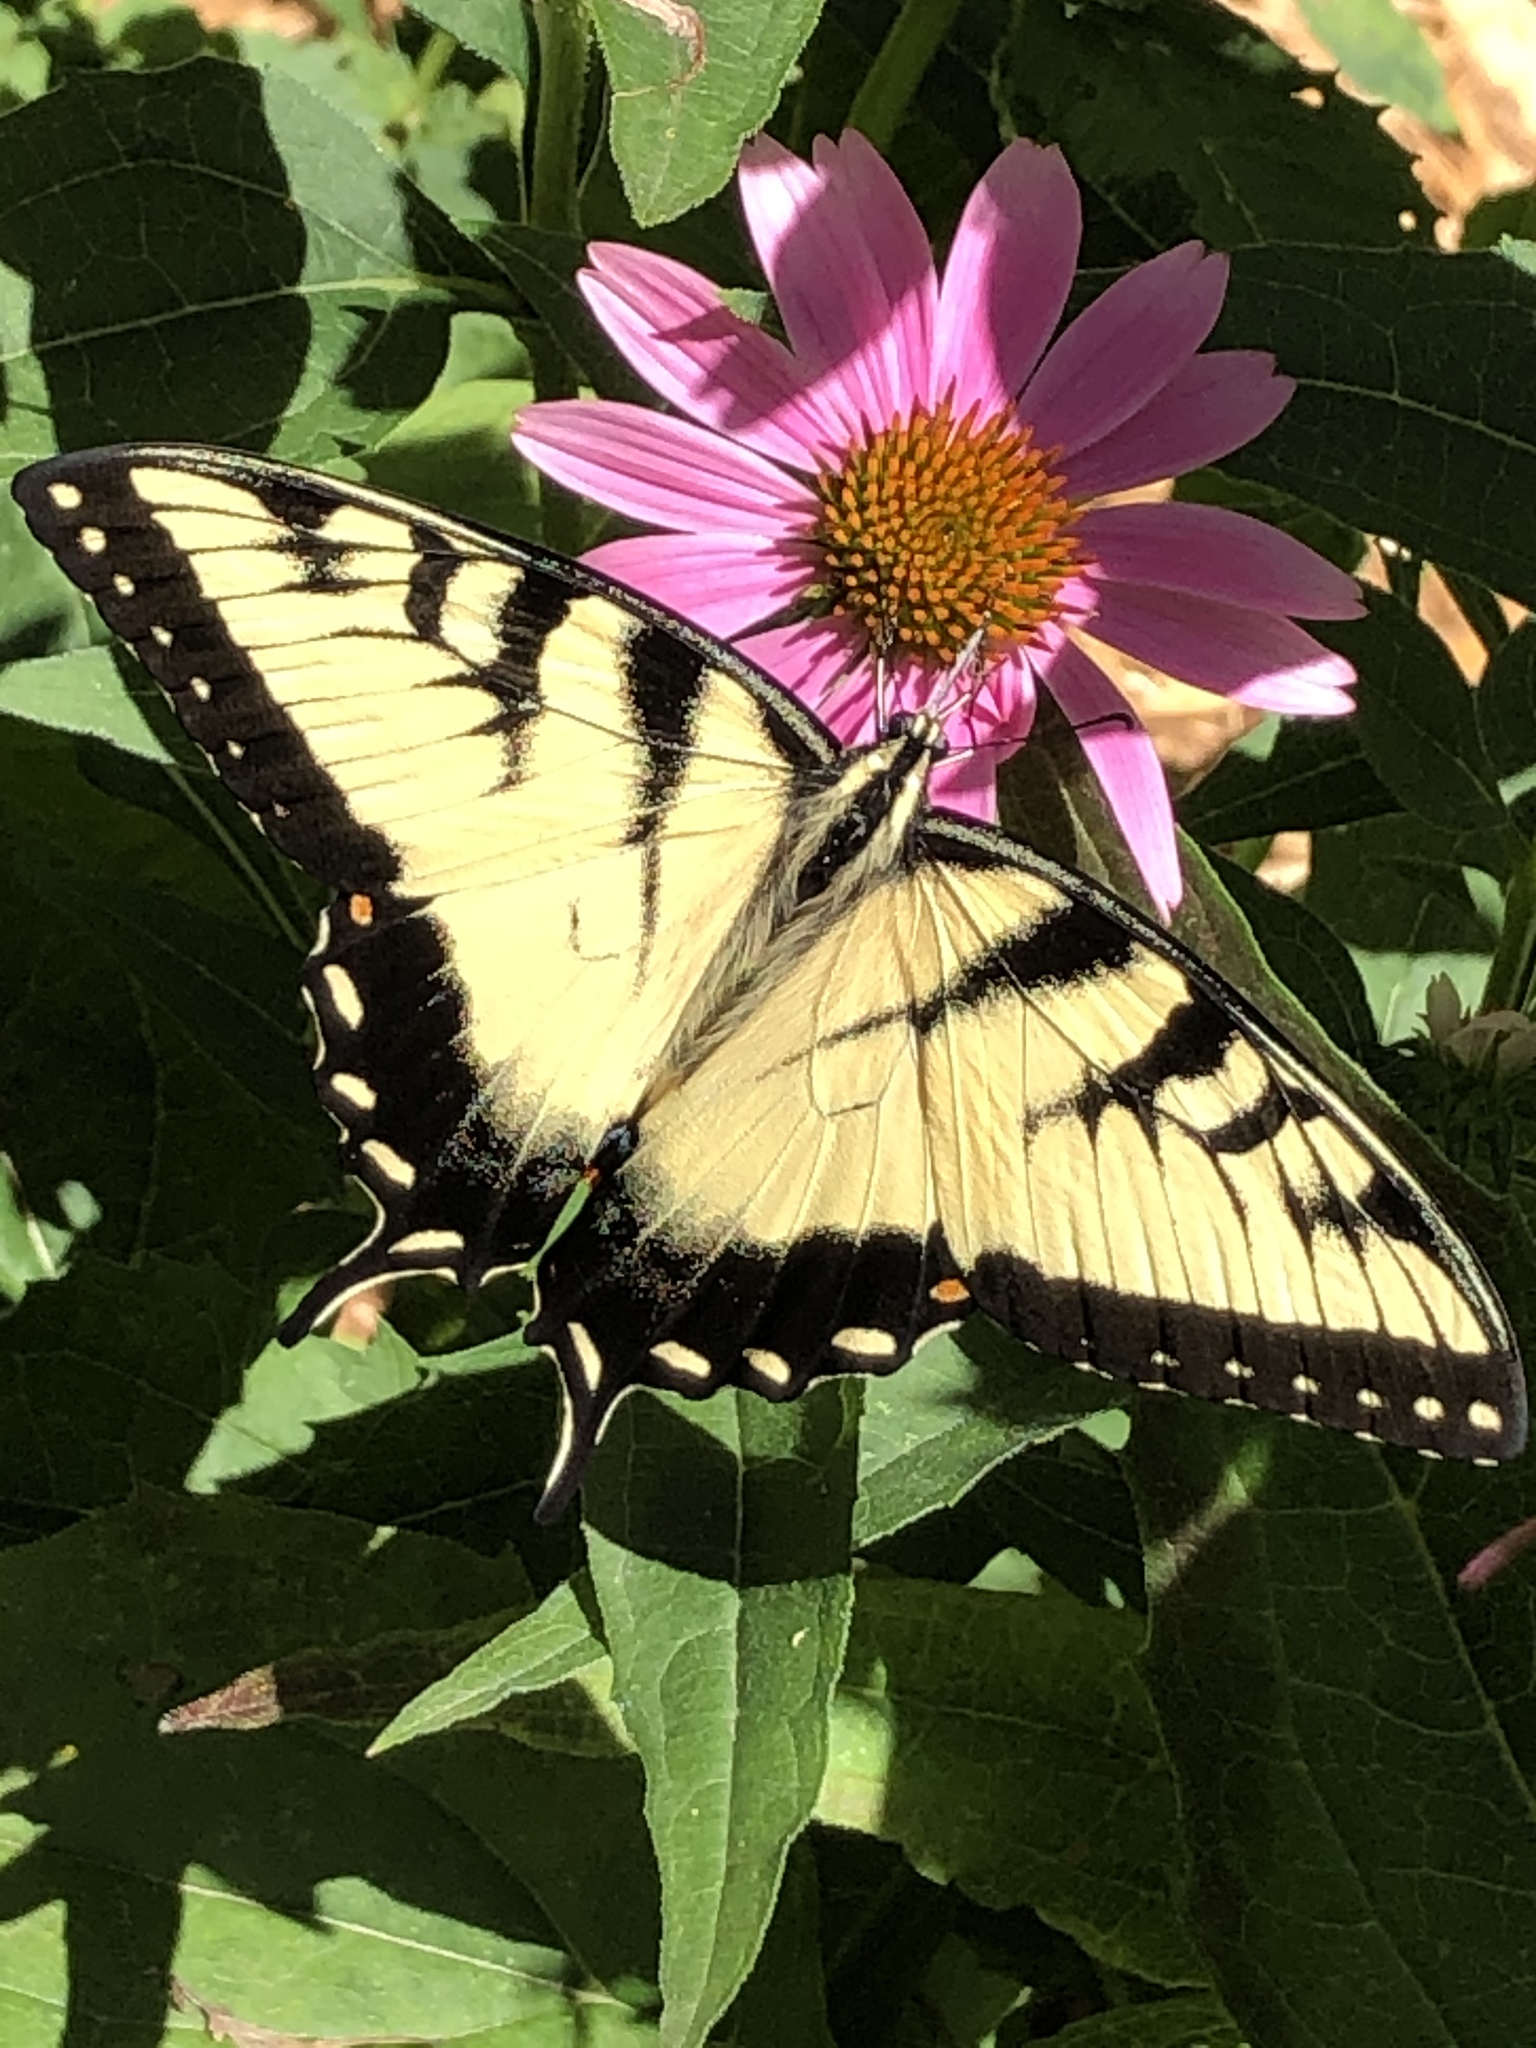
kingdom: Animalia
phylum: Arthropoda
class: Insecta
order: Lepidoptera
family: Papilionidae
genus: Papilio
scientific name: Papilio glaucus
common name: Tiger swallowtail
